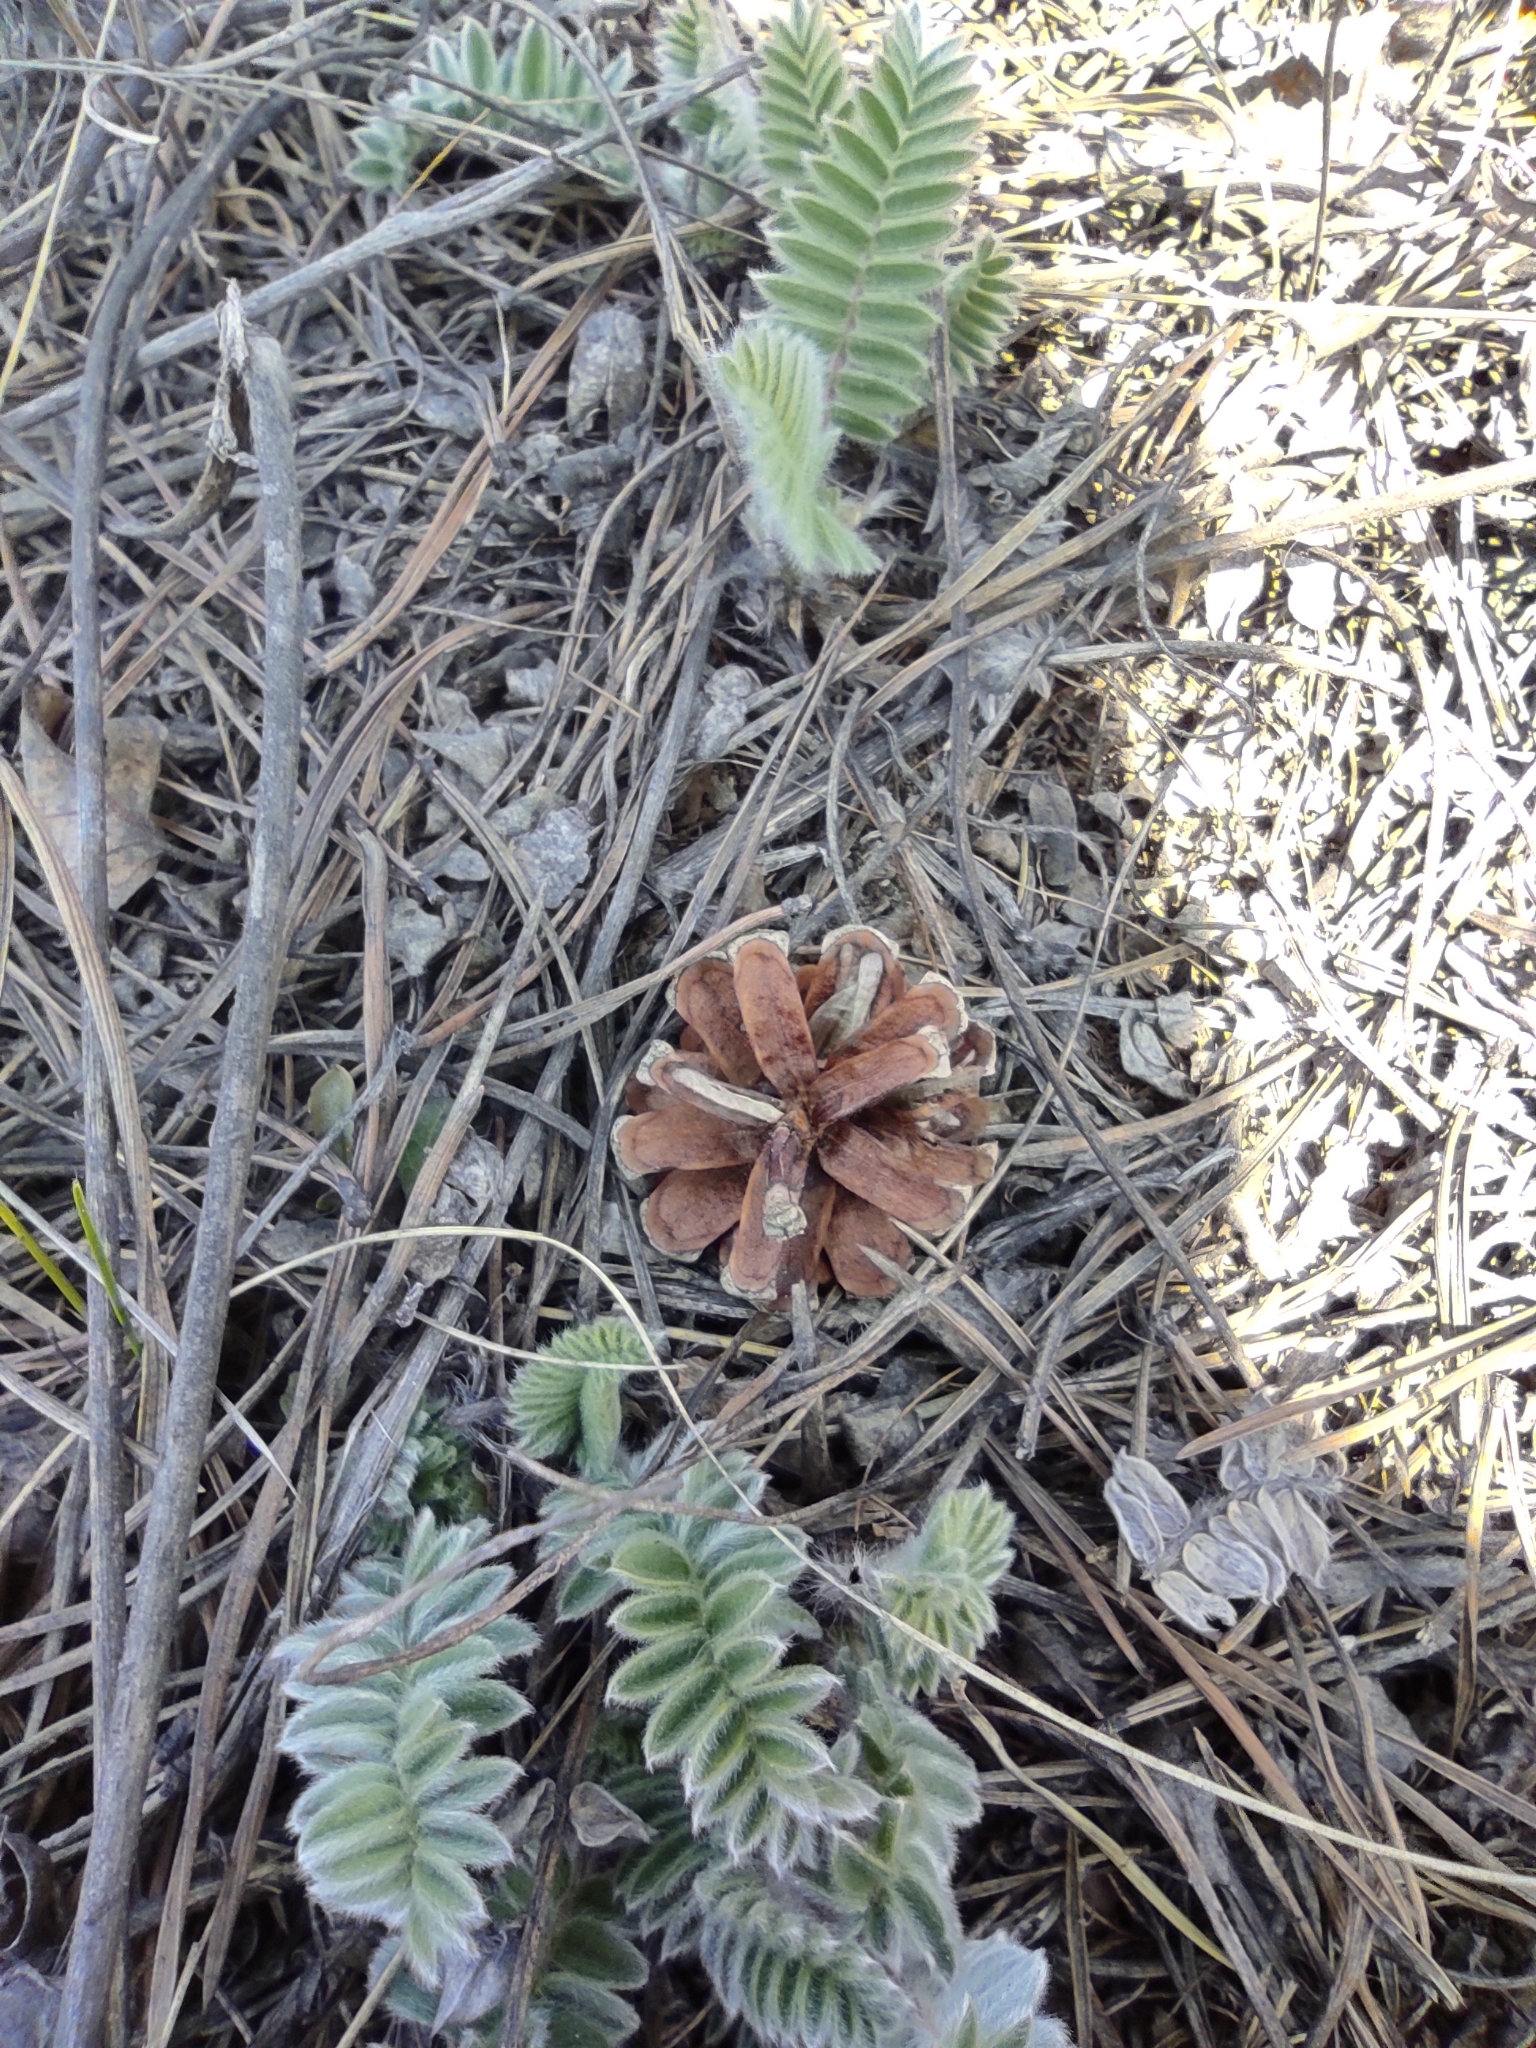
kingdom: Plantae
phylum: Tracheophyta
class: Magnoliopsida
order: Fabales
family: Fabaceae
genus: Oxytropis
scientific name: Oxytropis campanulata
